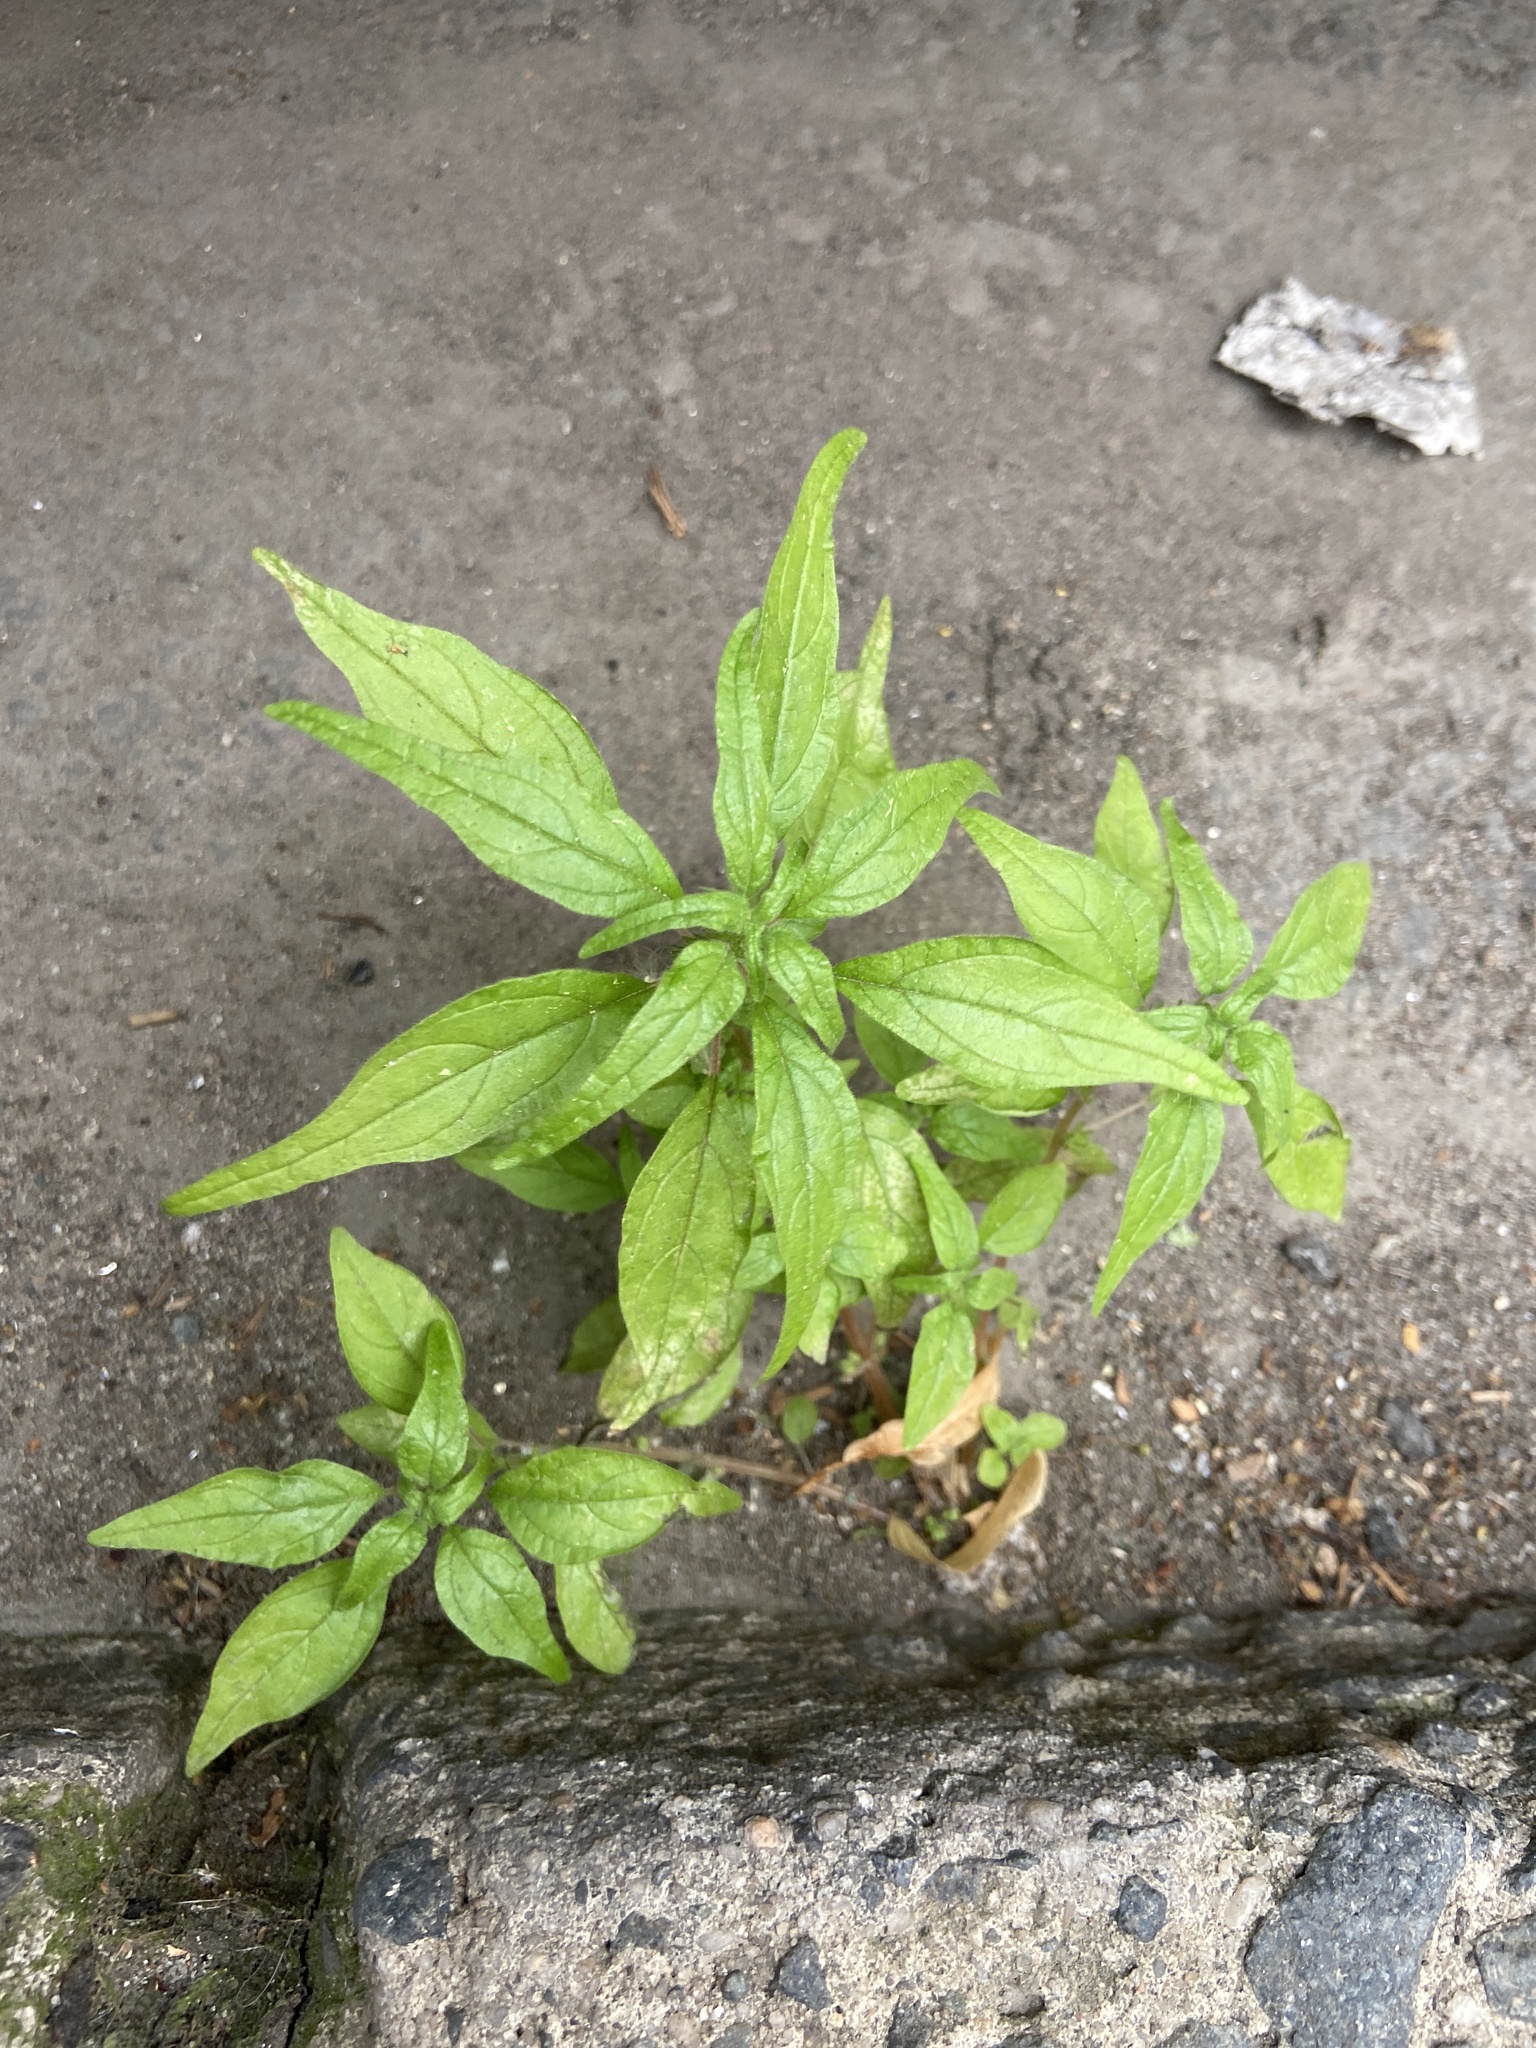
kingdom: Plantae
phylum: Tracheophyta
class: Magnoliopsida
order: Rosales
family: Urticaceae
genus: Parietaria
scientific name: Parietaria pensylvanica
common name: Pennsylvania pellitory
